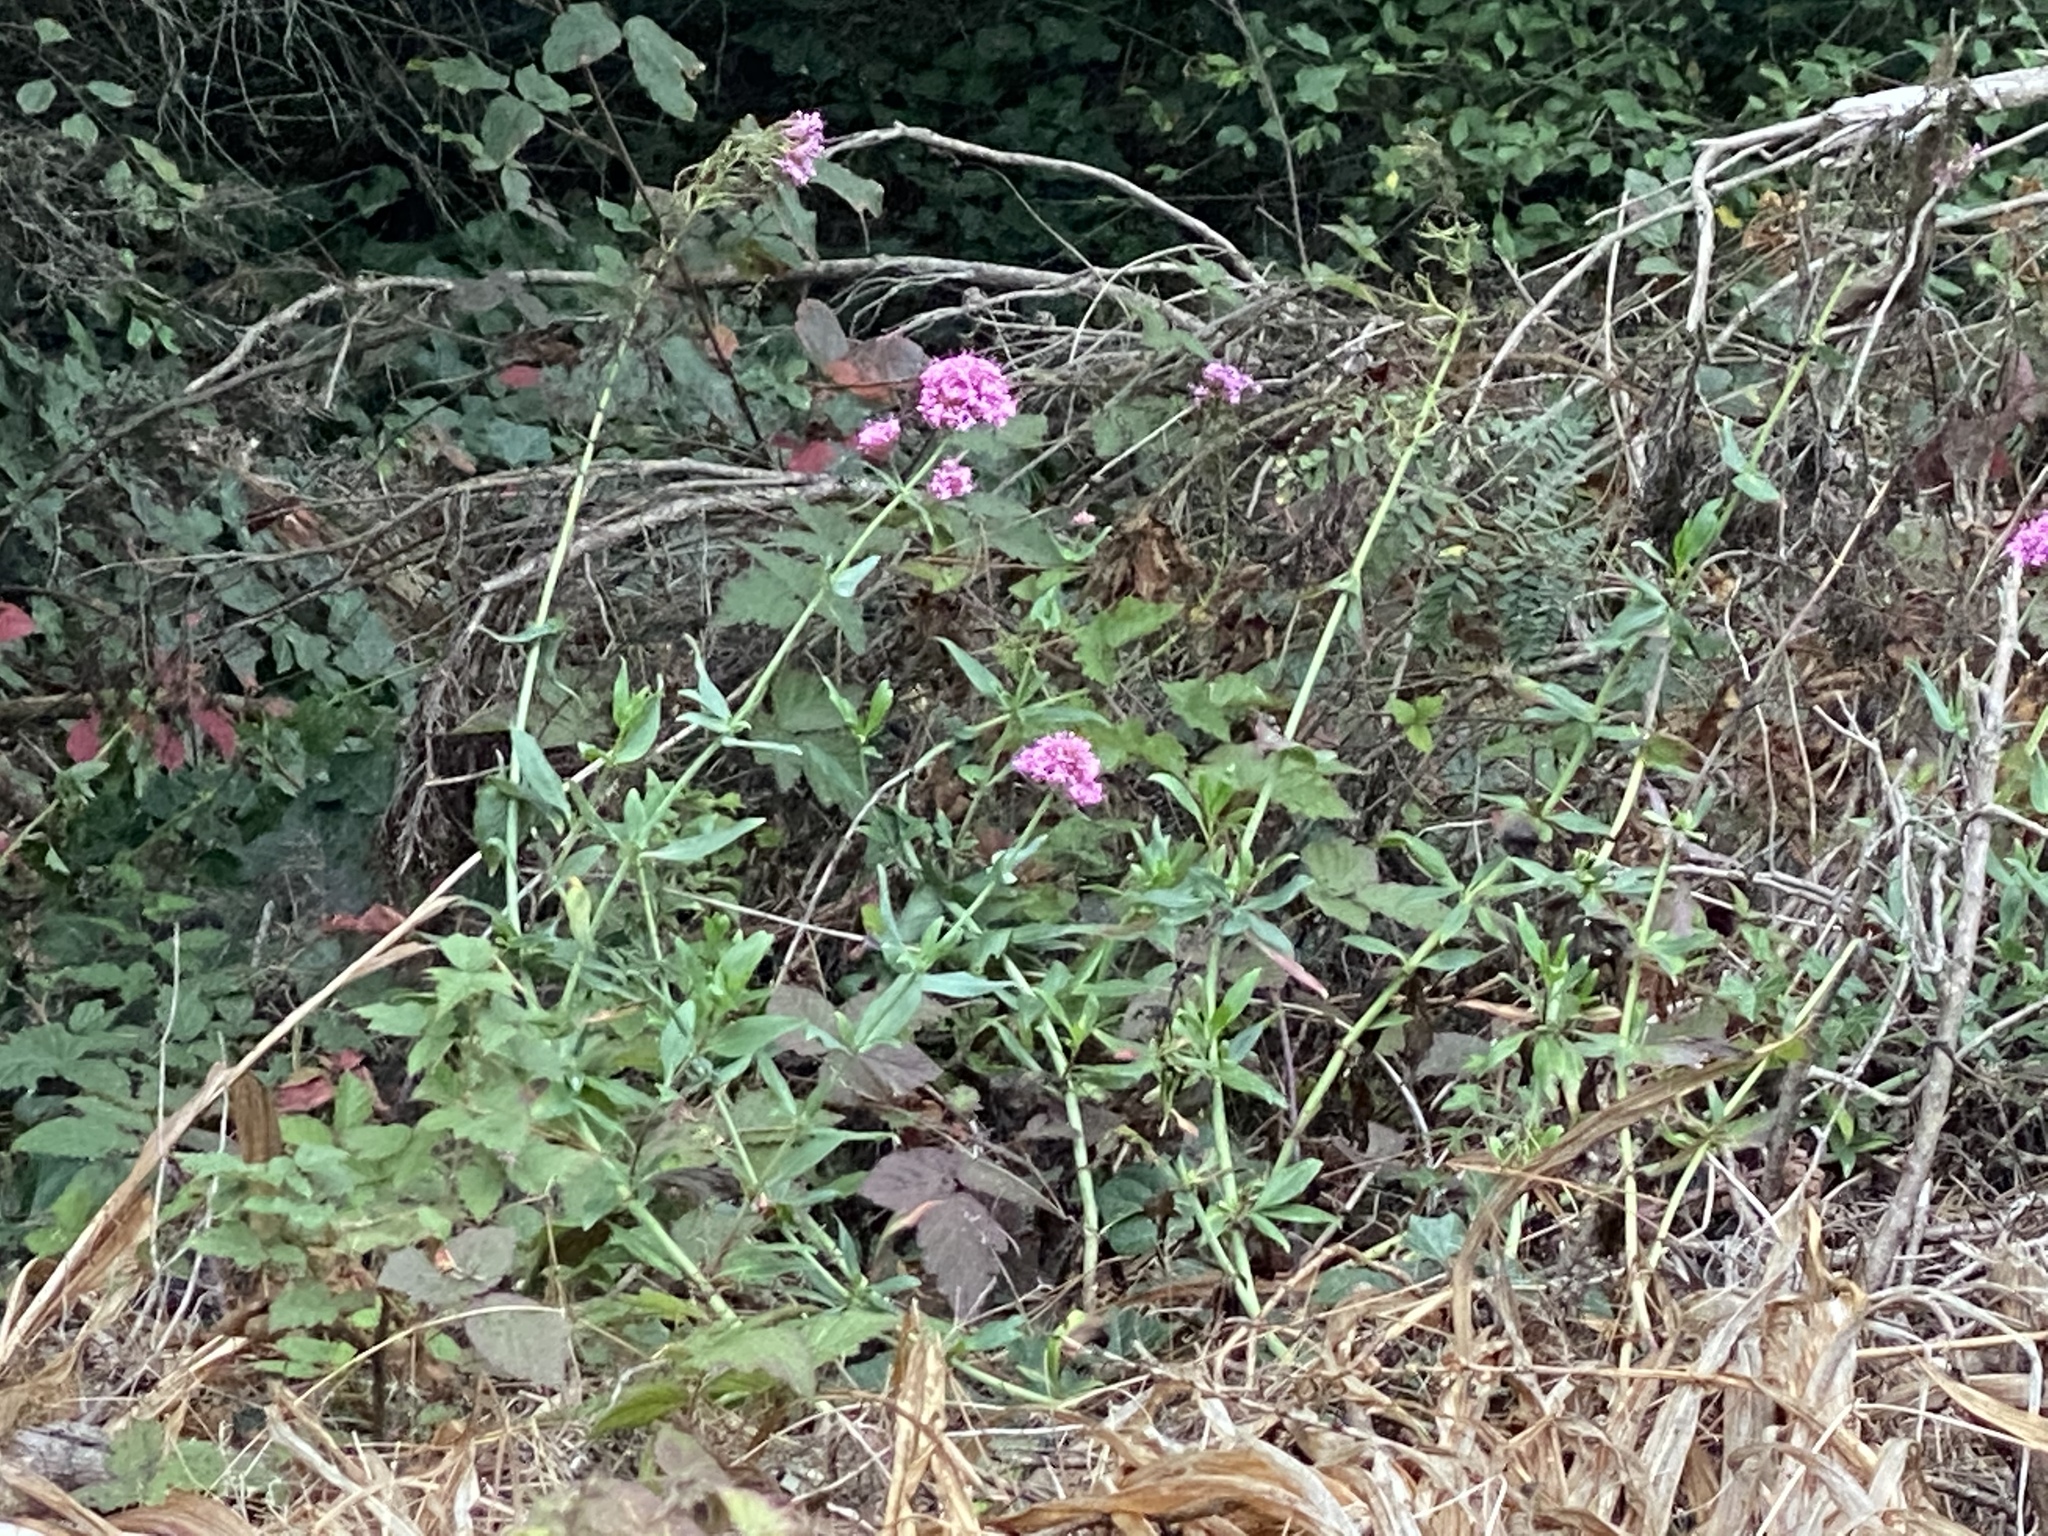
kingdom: Plantae
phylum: Tracheophyta
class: Magnoliopsida
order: Dipsacales
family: Caprifoliaceae
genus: Centranthus
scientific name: Centranthus ruber
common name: Red valerian
